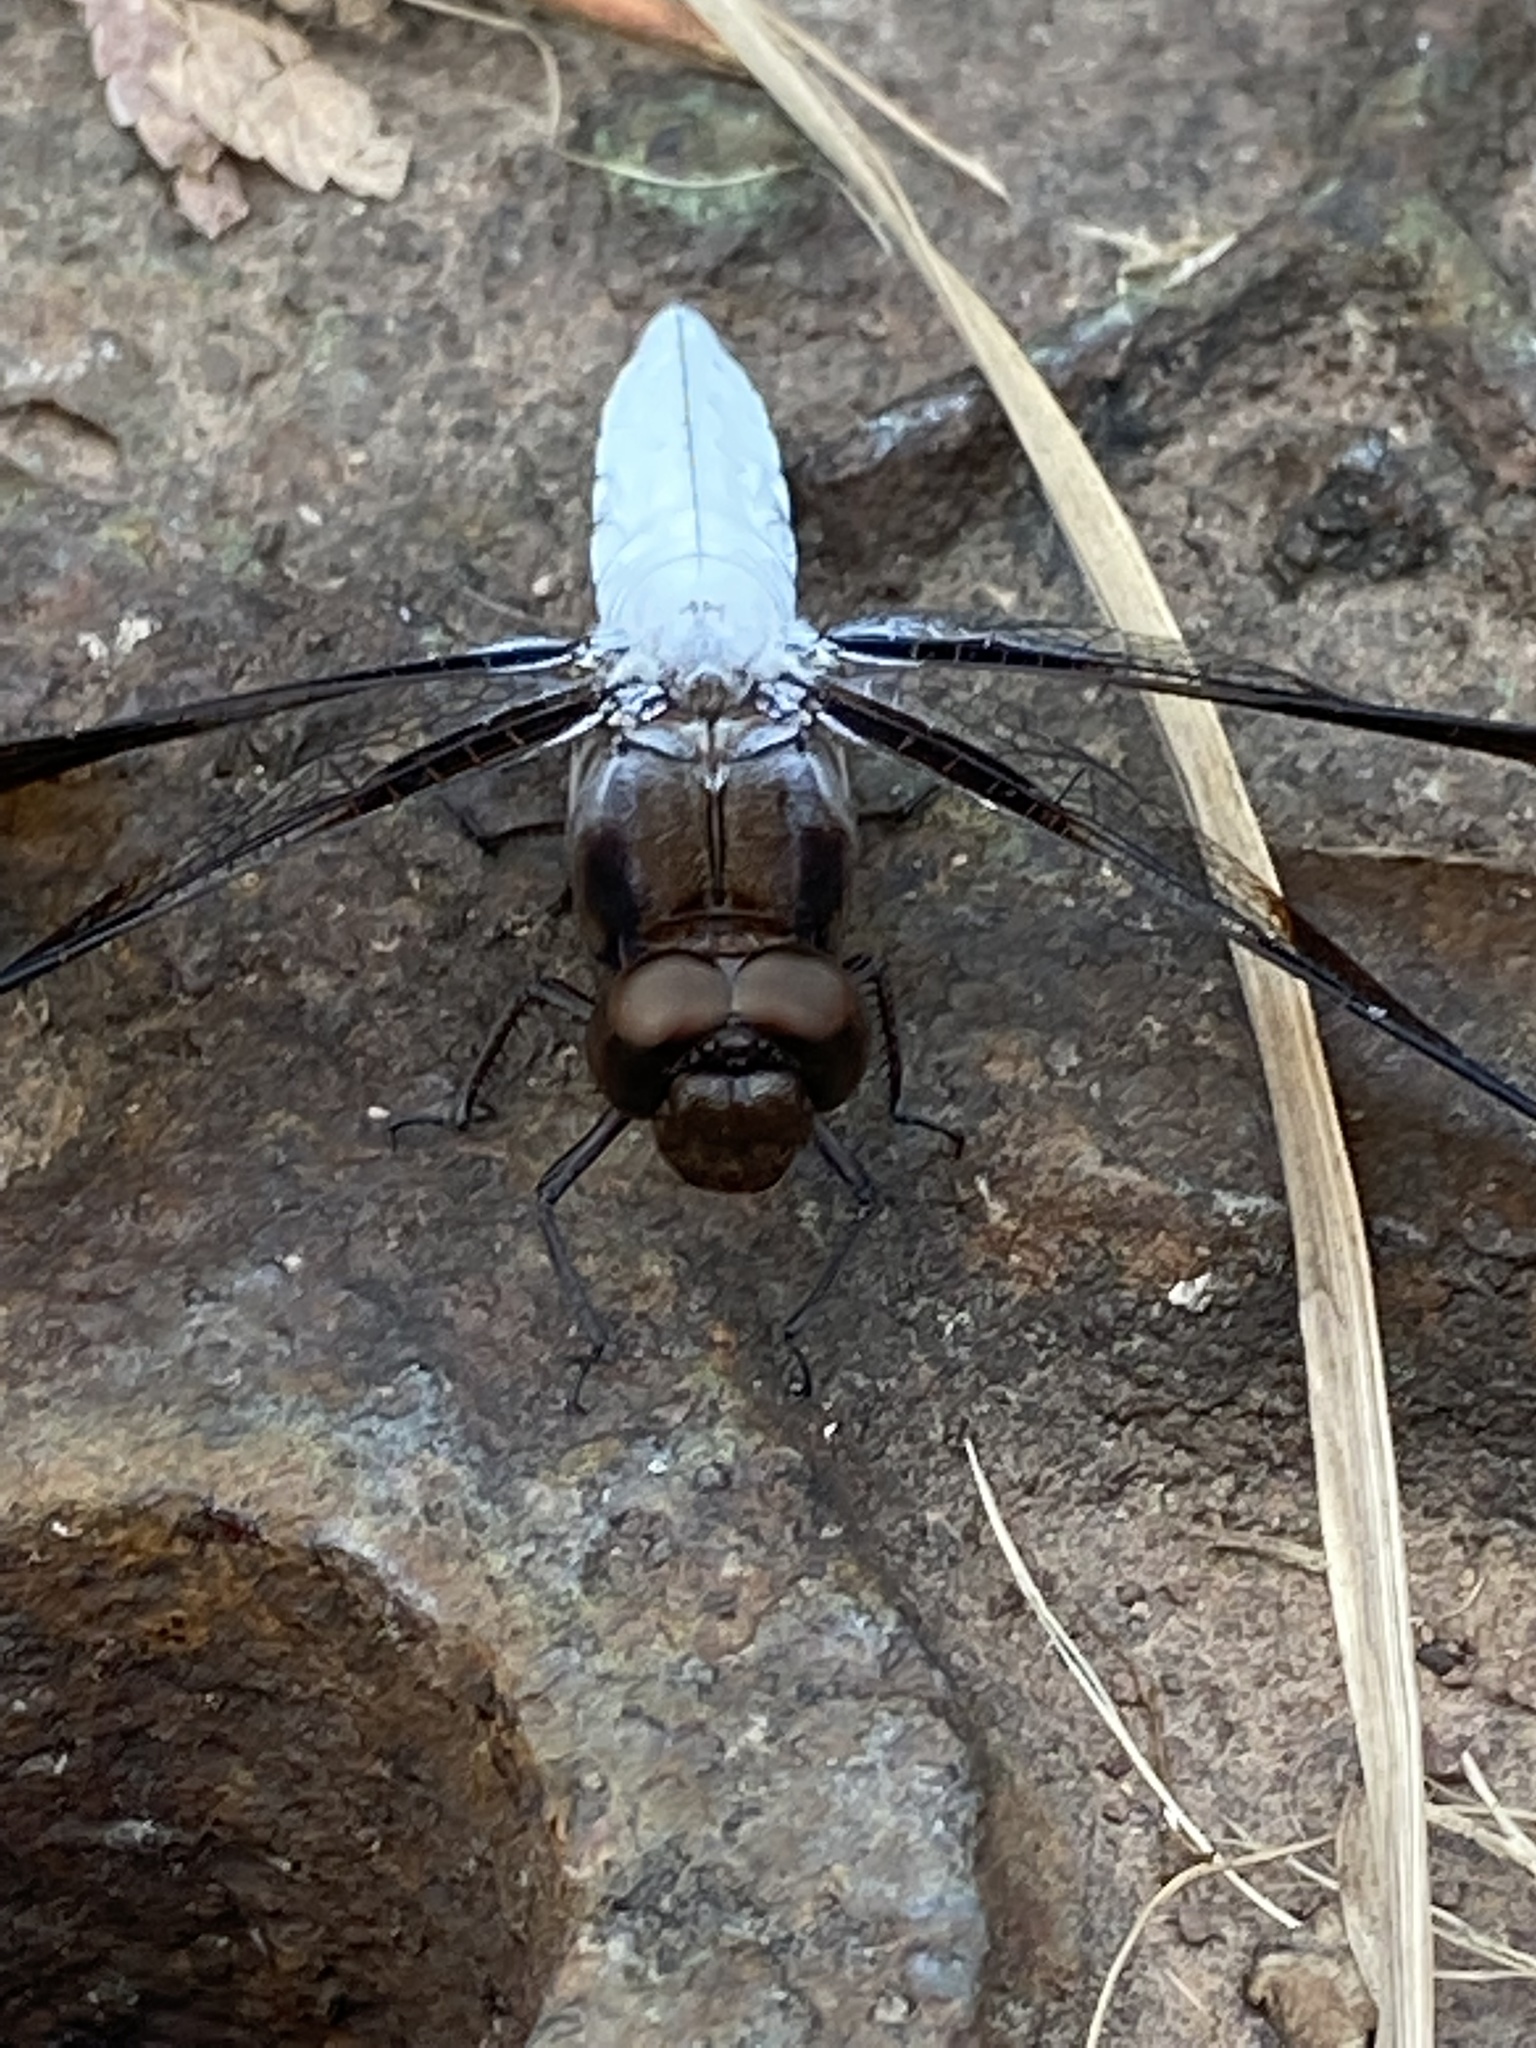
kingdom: Animalia
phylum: Arthropoda
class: Insecta
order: Odonata
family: Libellulidae
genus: Plathemis
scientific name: Plathemis lydia
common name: Common whitetail
